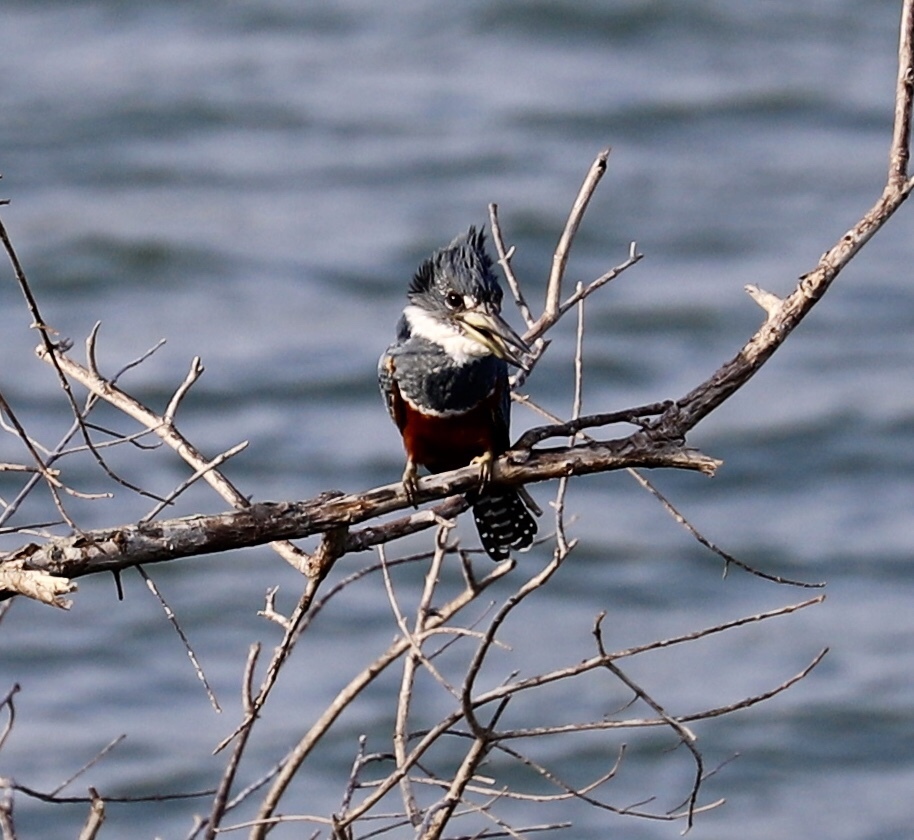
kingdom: Animalia
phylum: Chordata
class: Aves
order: Coraciiformes
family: Alcedinidae
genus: Megaceryle
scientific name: Megaceryle torquata
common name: Ringed kingfisher
